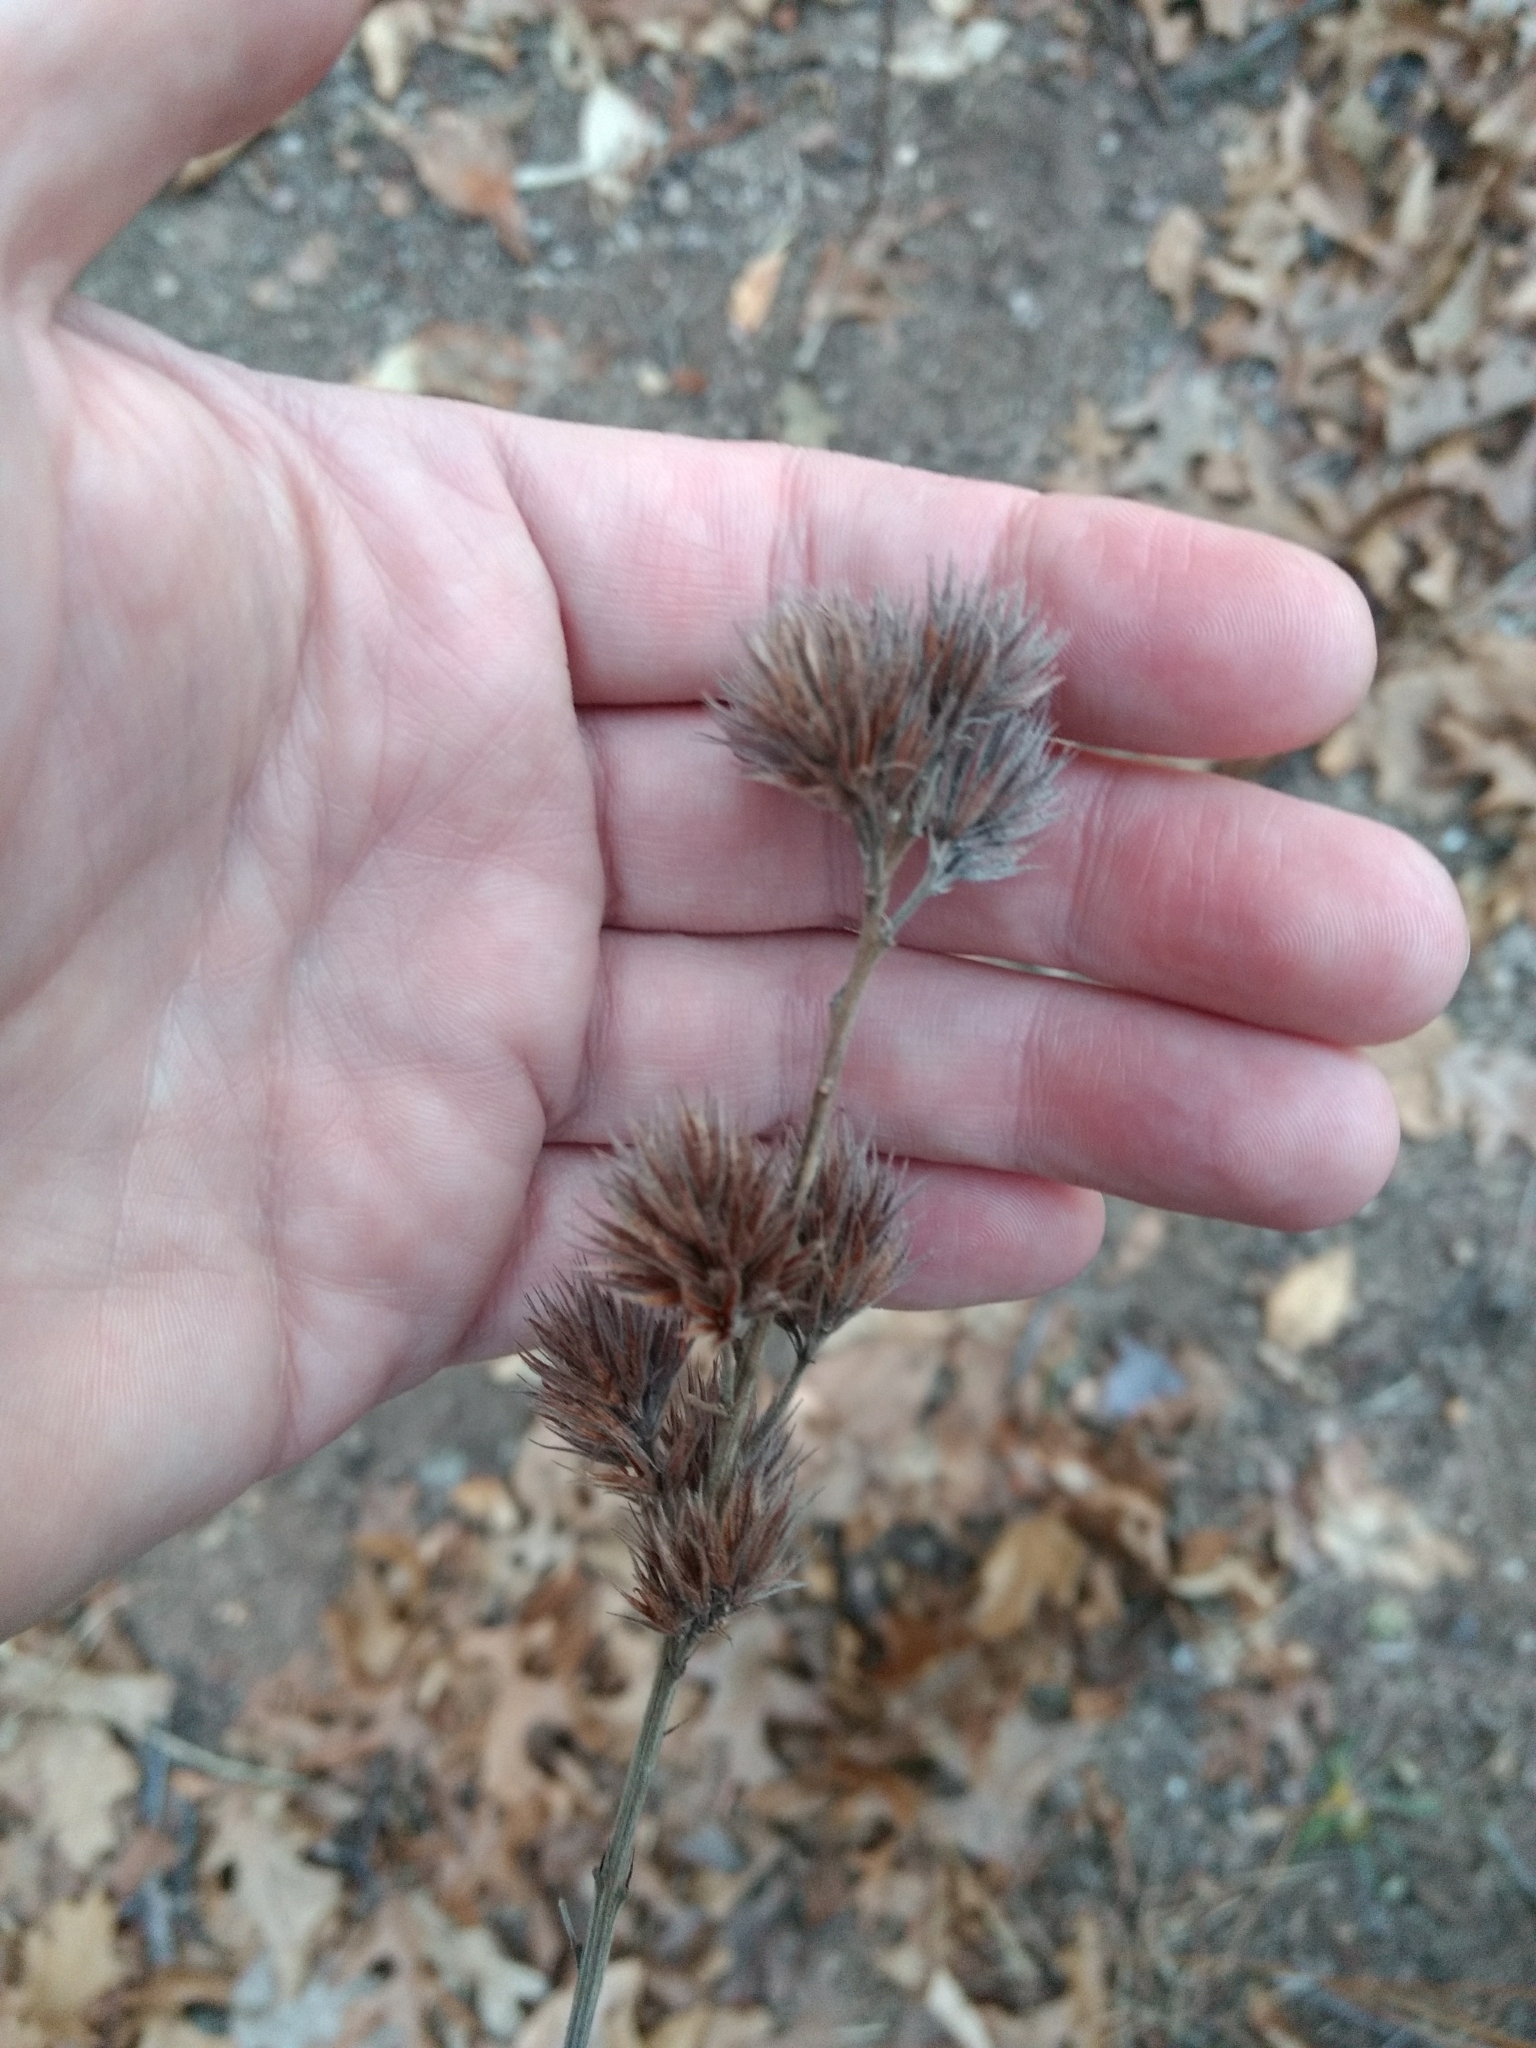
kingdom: Plantae
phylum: Tracheophyta
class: Magnoliopsida
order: Fabales
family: Fabaceae
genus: Lespedeza
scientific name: Lespedeza capitata
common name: Dusty clover
